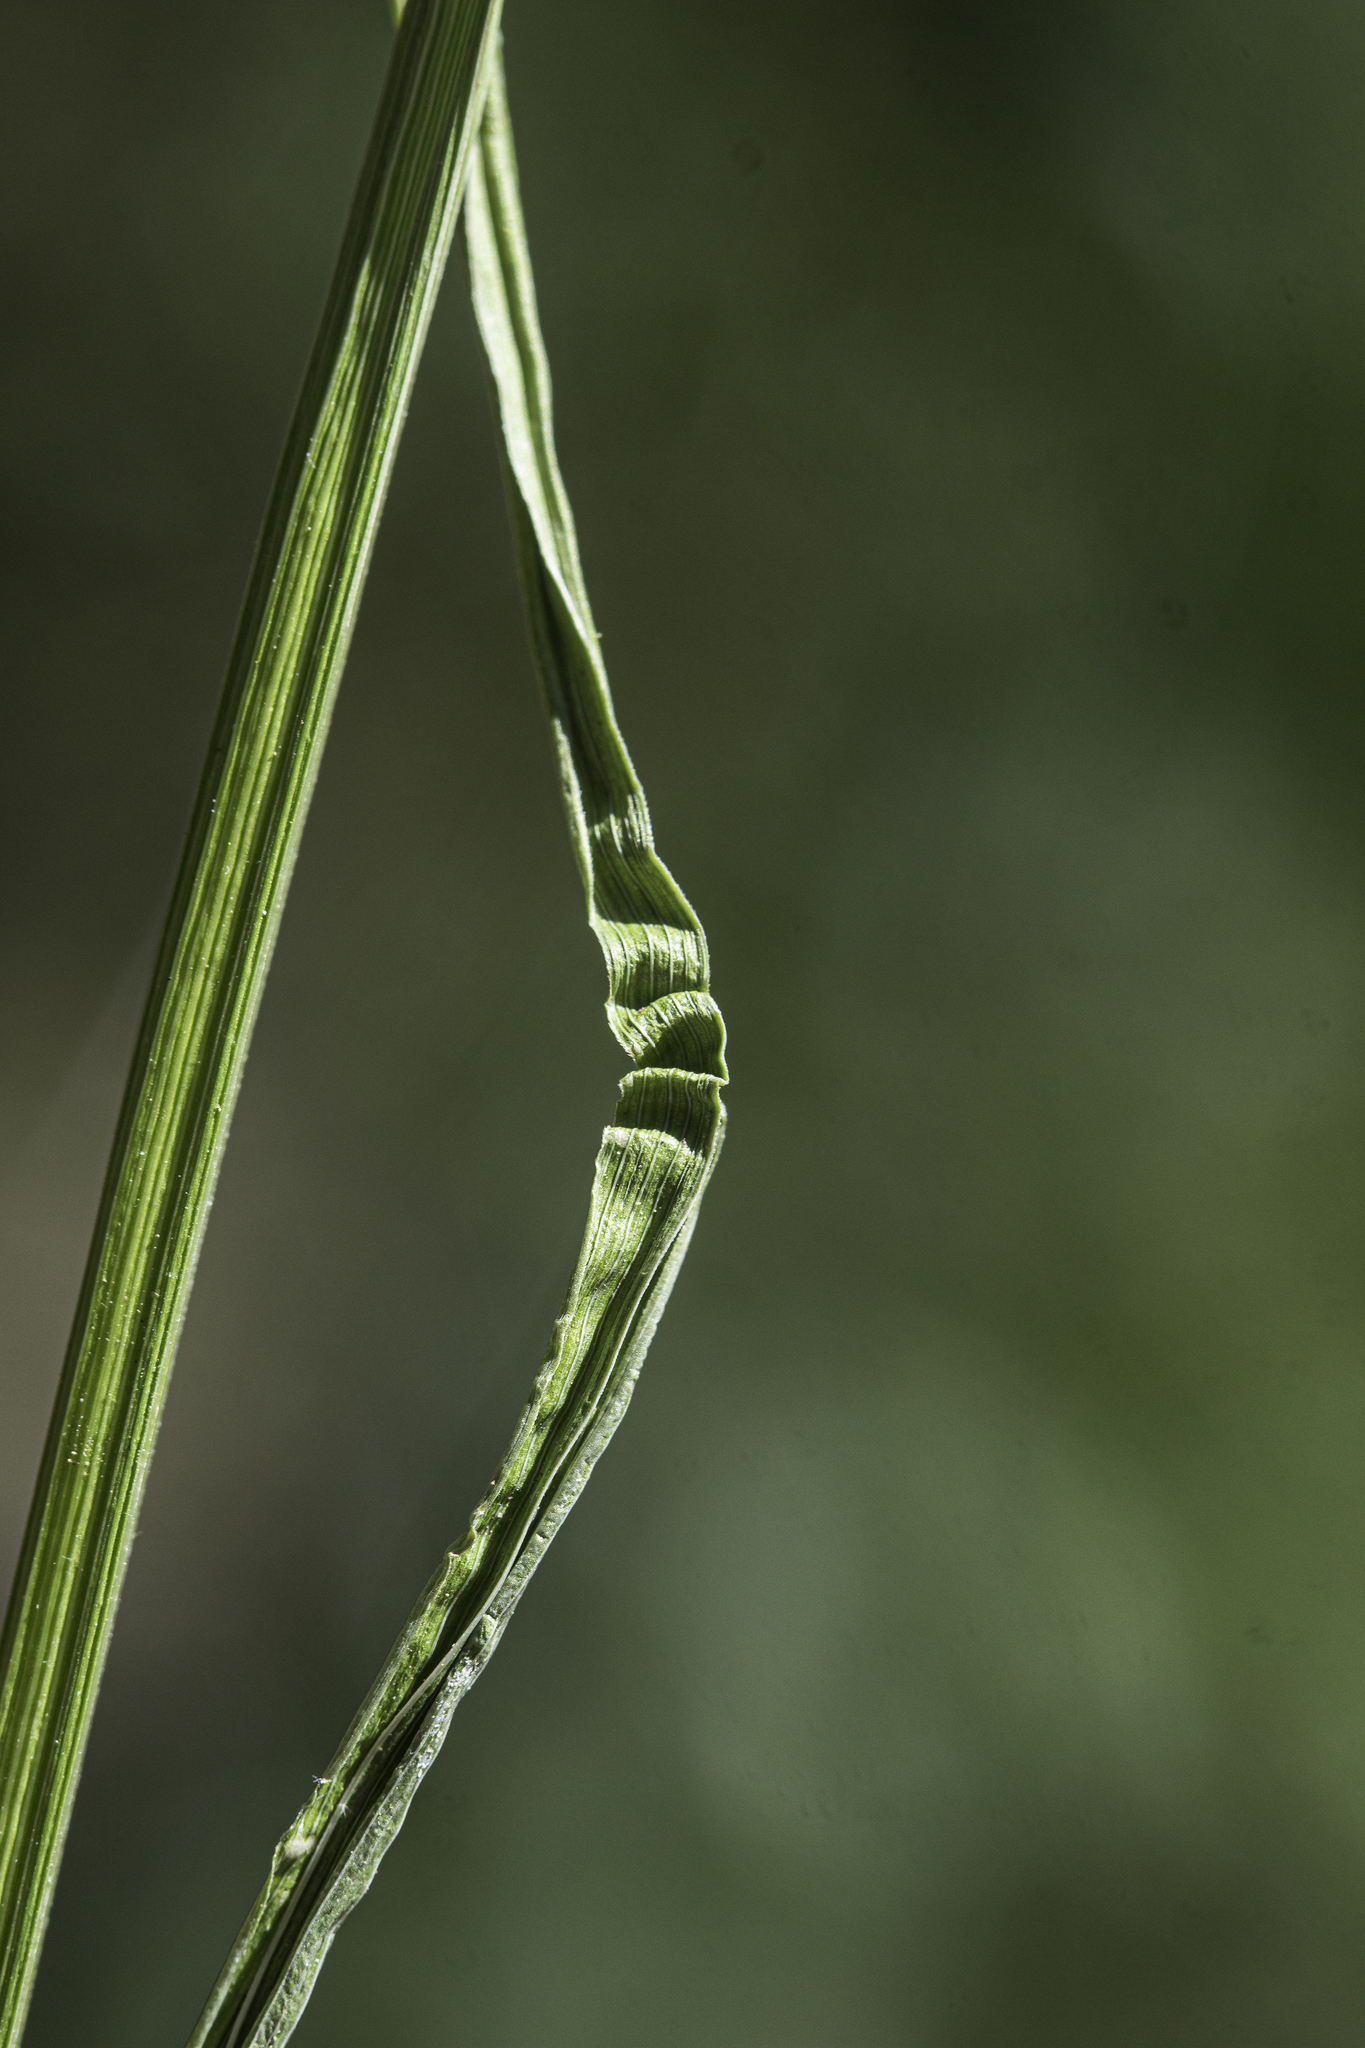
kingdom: Plantae
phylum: Tracheophyta
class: Liliopsida
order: Poales
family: Cyperaceae
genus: Carex
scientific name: Carex vulpinoidea
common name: American fox-sedge
